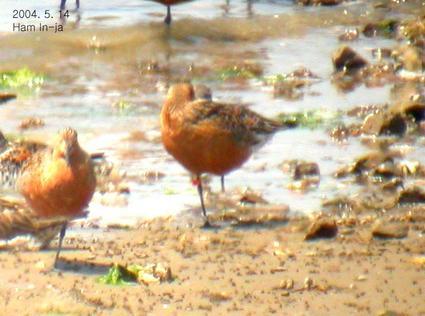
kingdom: Animalia
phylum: Chordata
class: Aves
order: Charadriiformes
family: Scolopacidae
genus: Limosa
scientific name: Limosa lapponica
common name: Bar-tailed godwit
